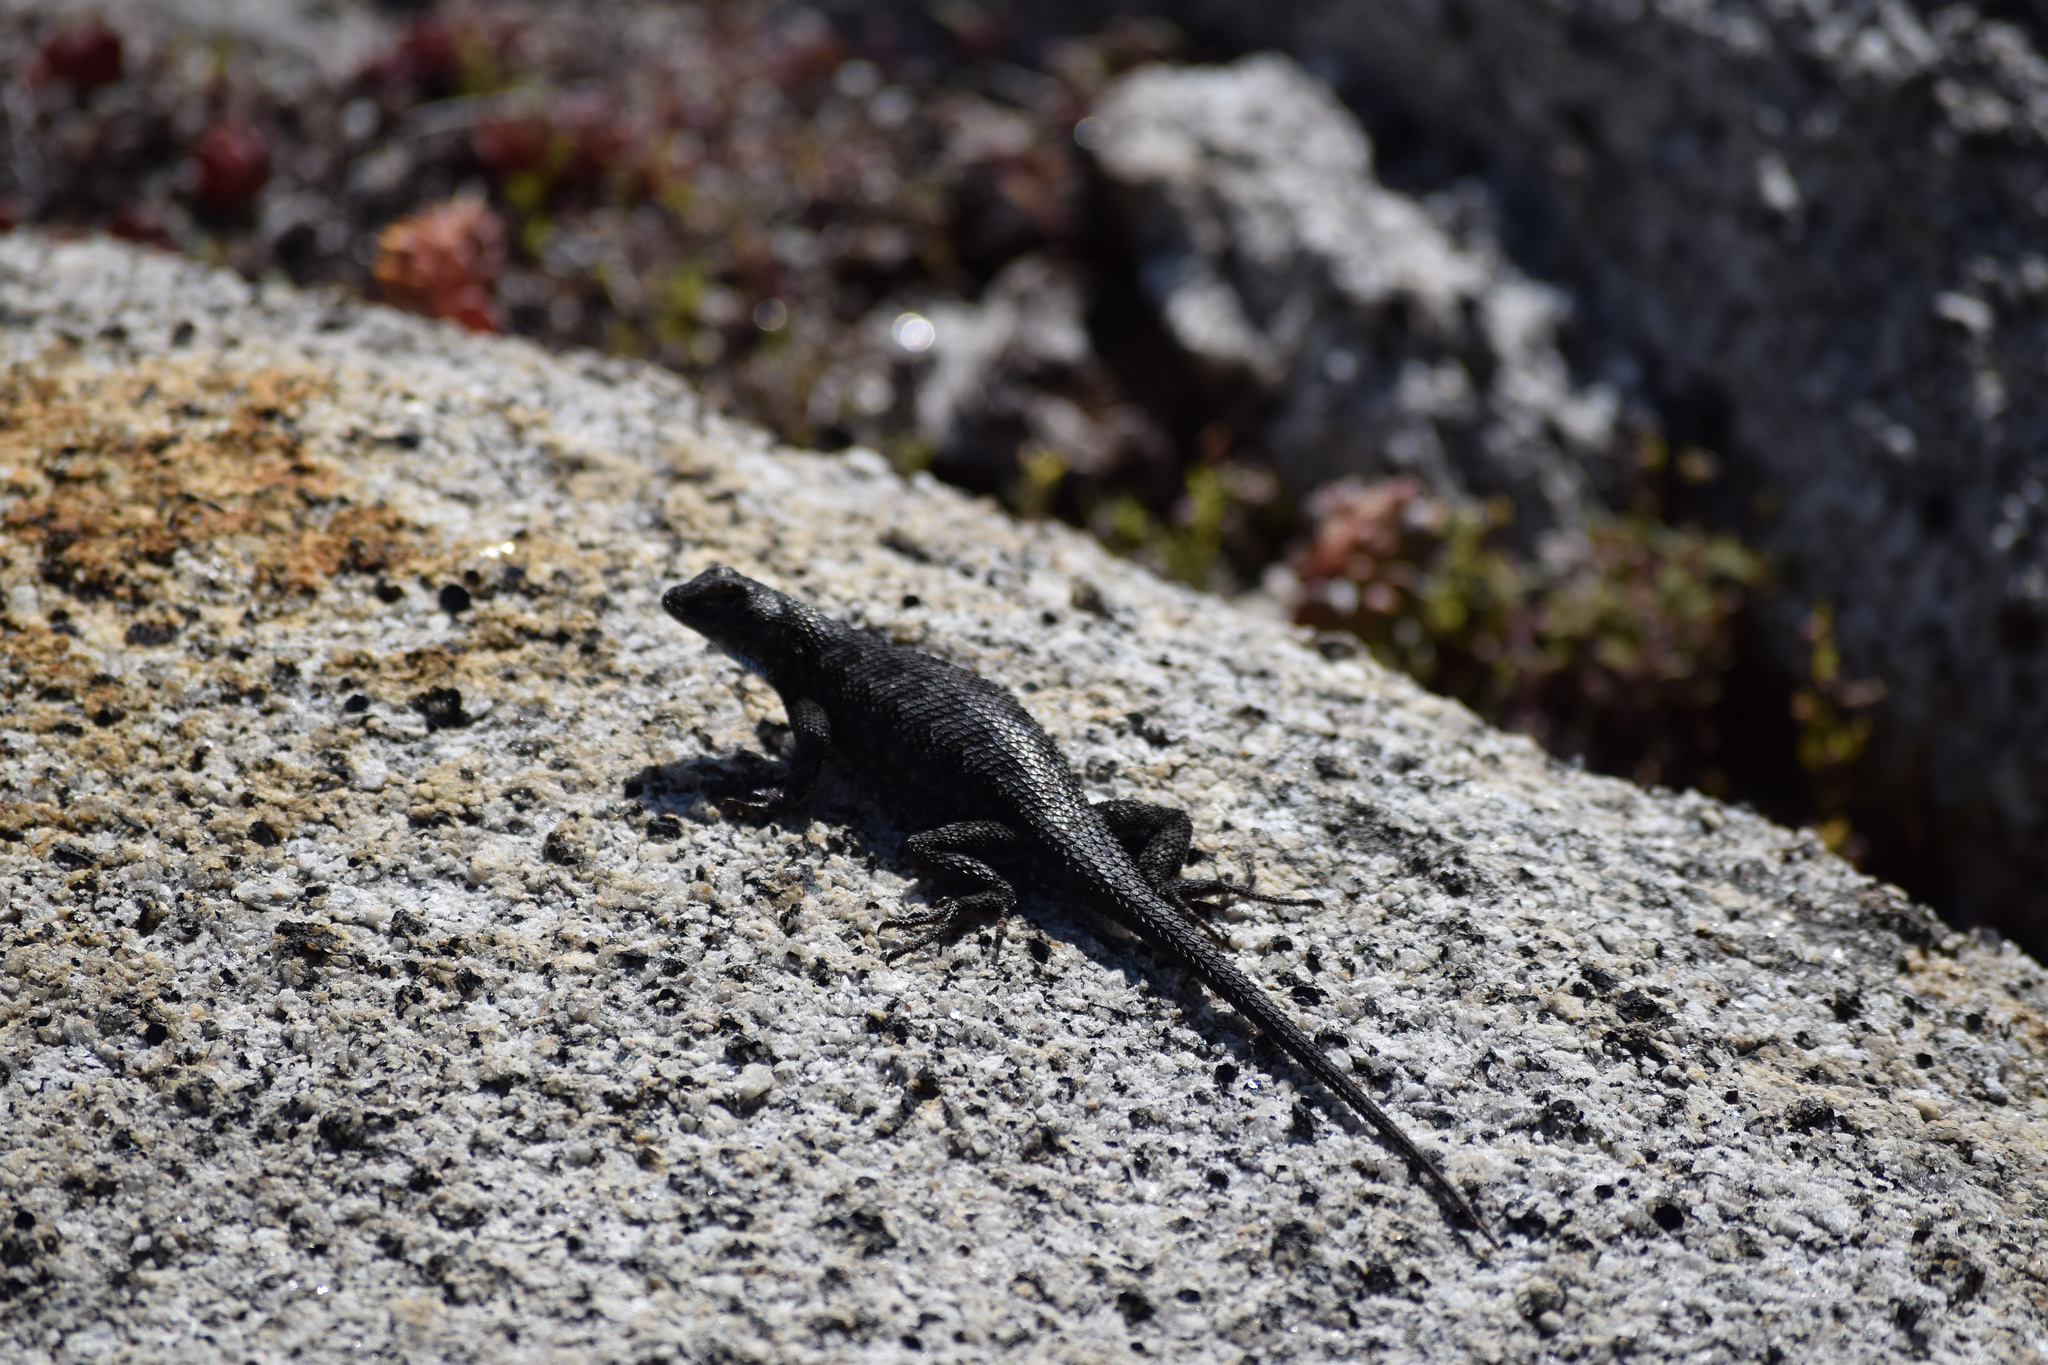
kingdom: Animalia
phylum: Chordata
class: Squamata
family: Phrynosomatidae
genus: Sceloporus
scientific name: Sceloporus occidentalis
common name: Western fence lizard
